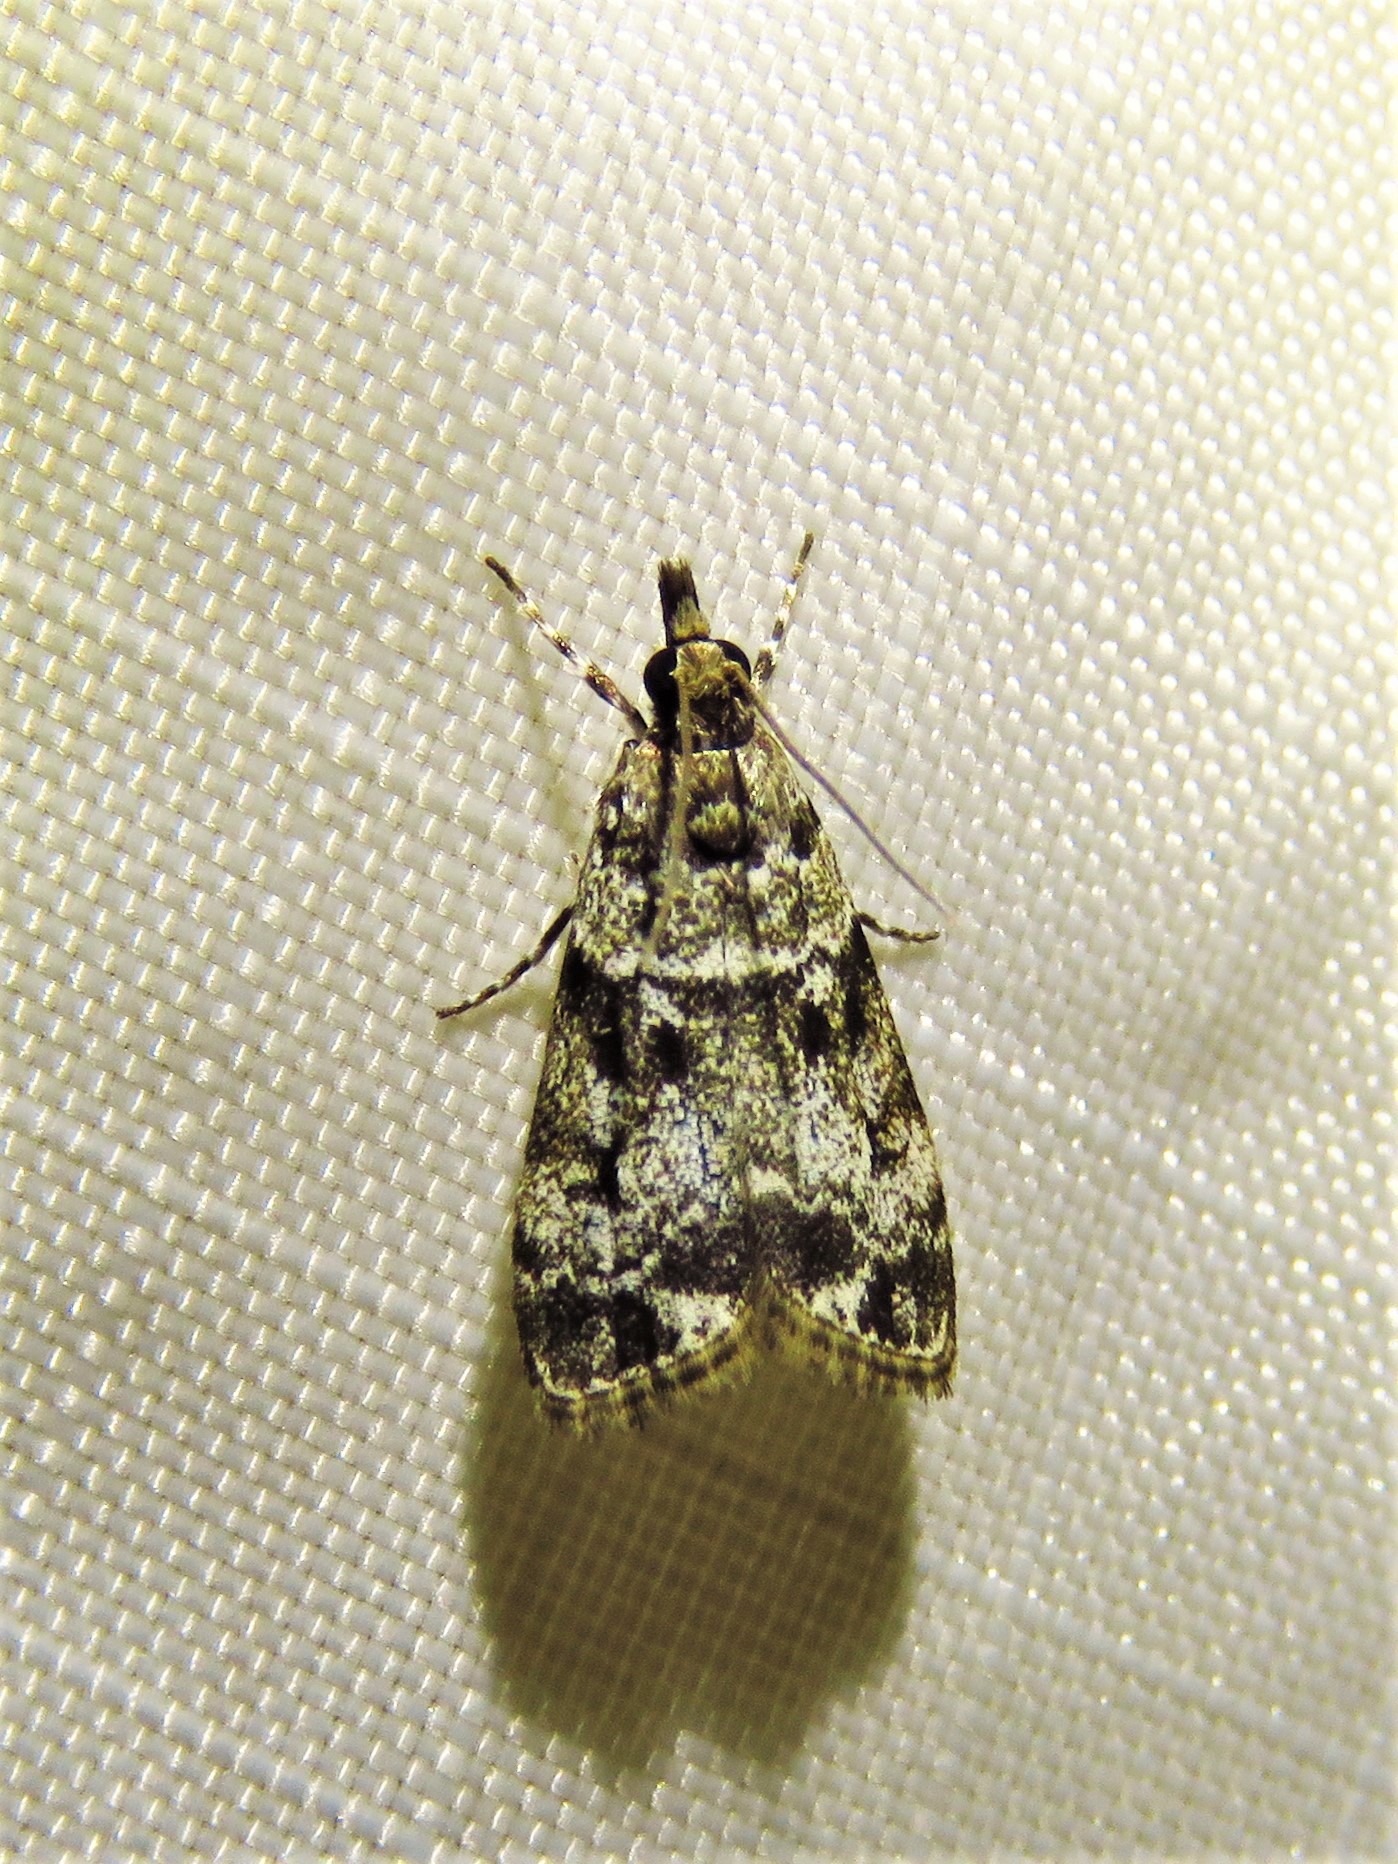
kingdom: Animalia
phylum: Arthropoda
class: Insecta
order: Lepidoptera
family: Crambidae
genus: Eudonia
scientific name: Eudonia heterosalis
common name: Mcdunnough's eudonia
